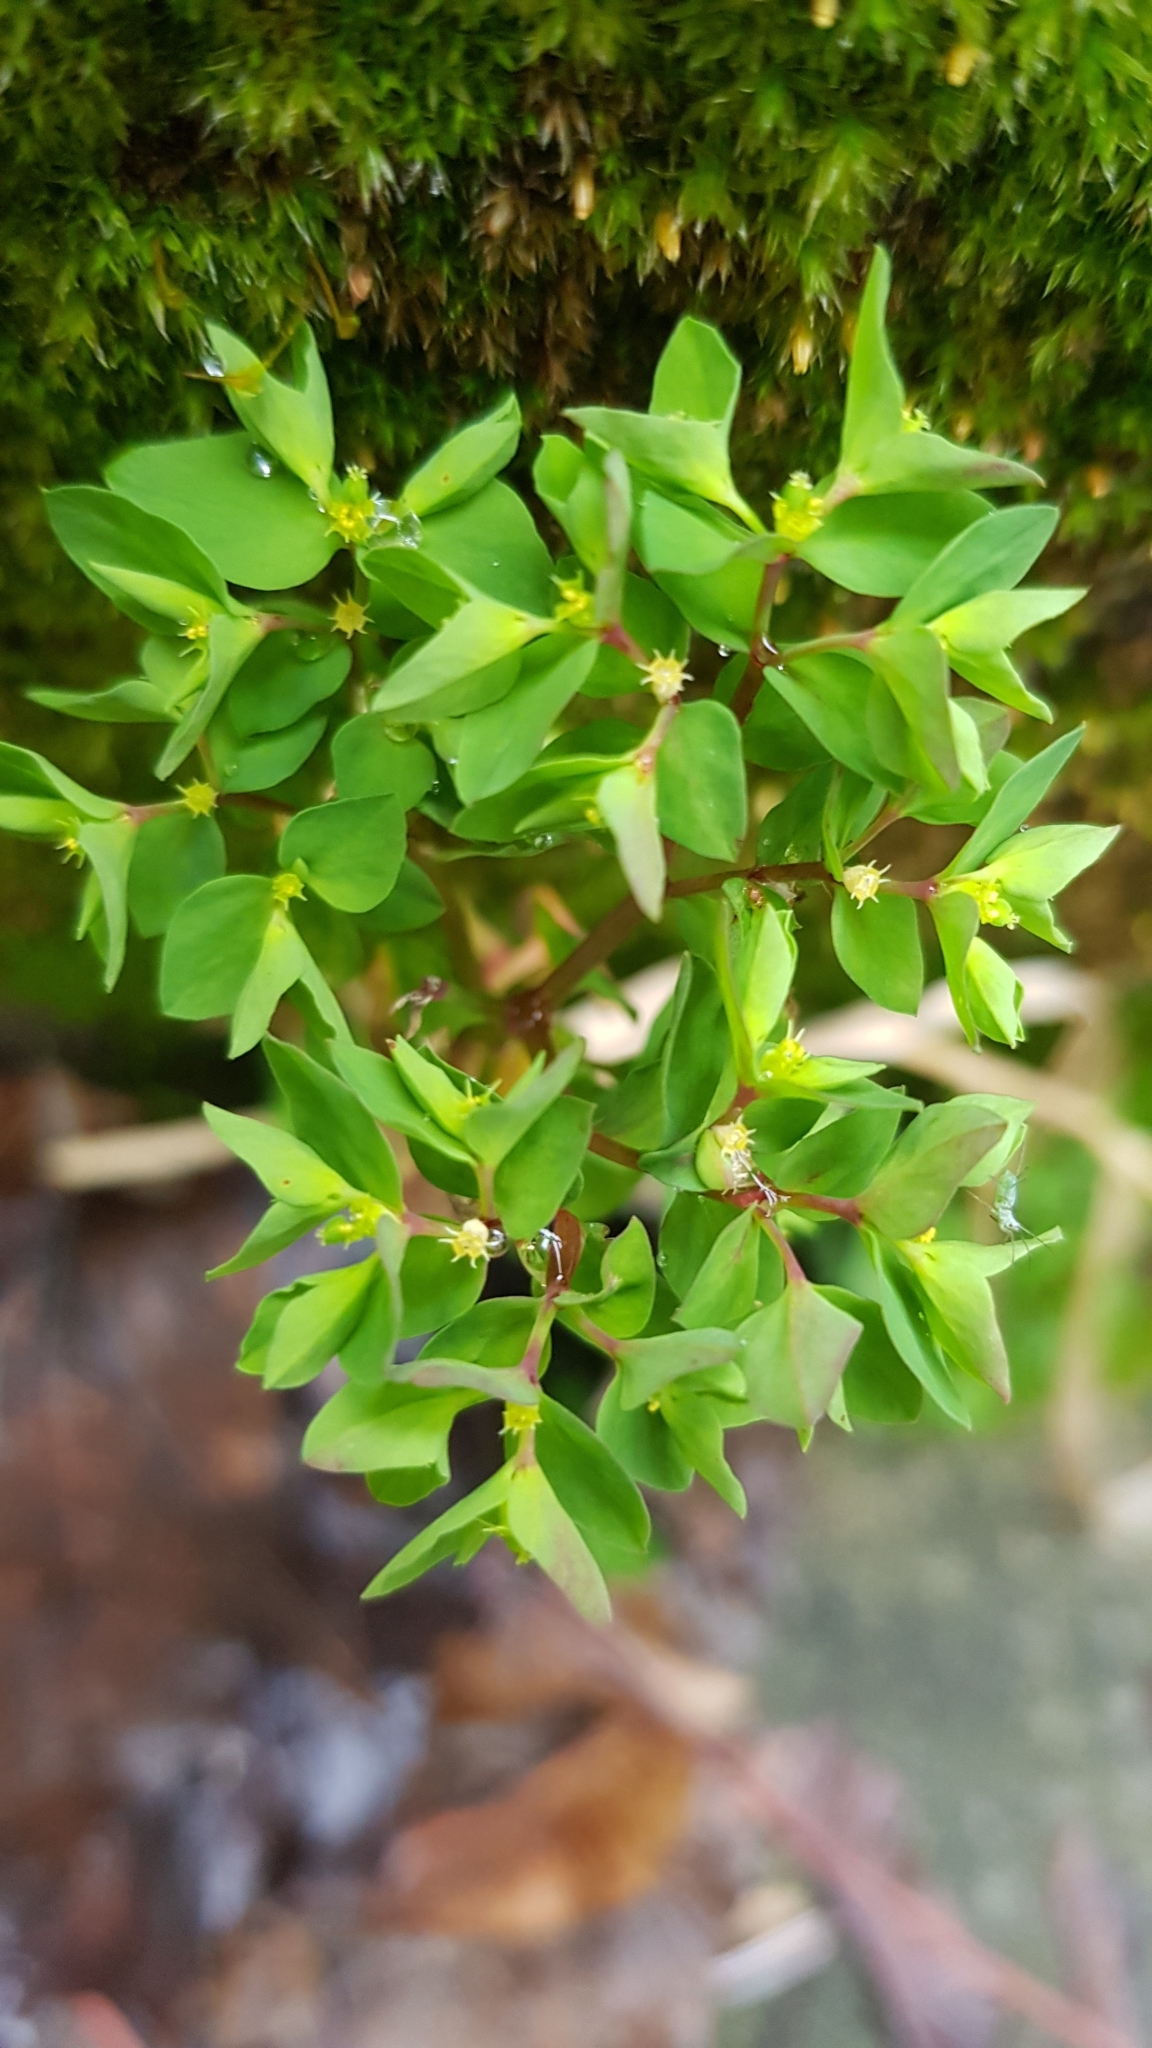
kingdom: Plantae
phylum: Tracheophyta
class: Magnoliopsida
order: Malpighiales
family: Euphorbiaceae
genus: Euphorbia
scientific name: Euphorbia peplus
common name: Petty spurge
